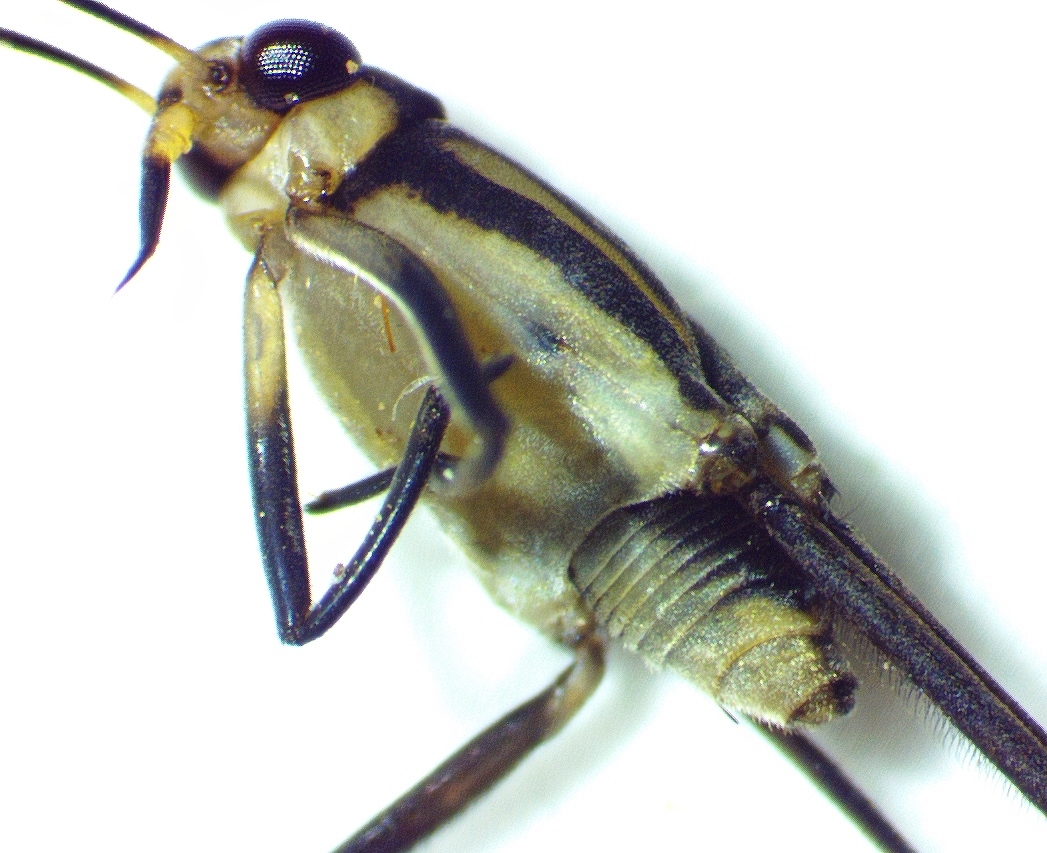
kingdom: Animalia
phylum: Arthropoda
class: Insecta
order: Hemiptera
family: Gerridae
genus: Trepobates
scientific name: Trepobates subnitidus
